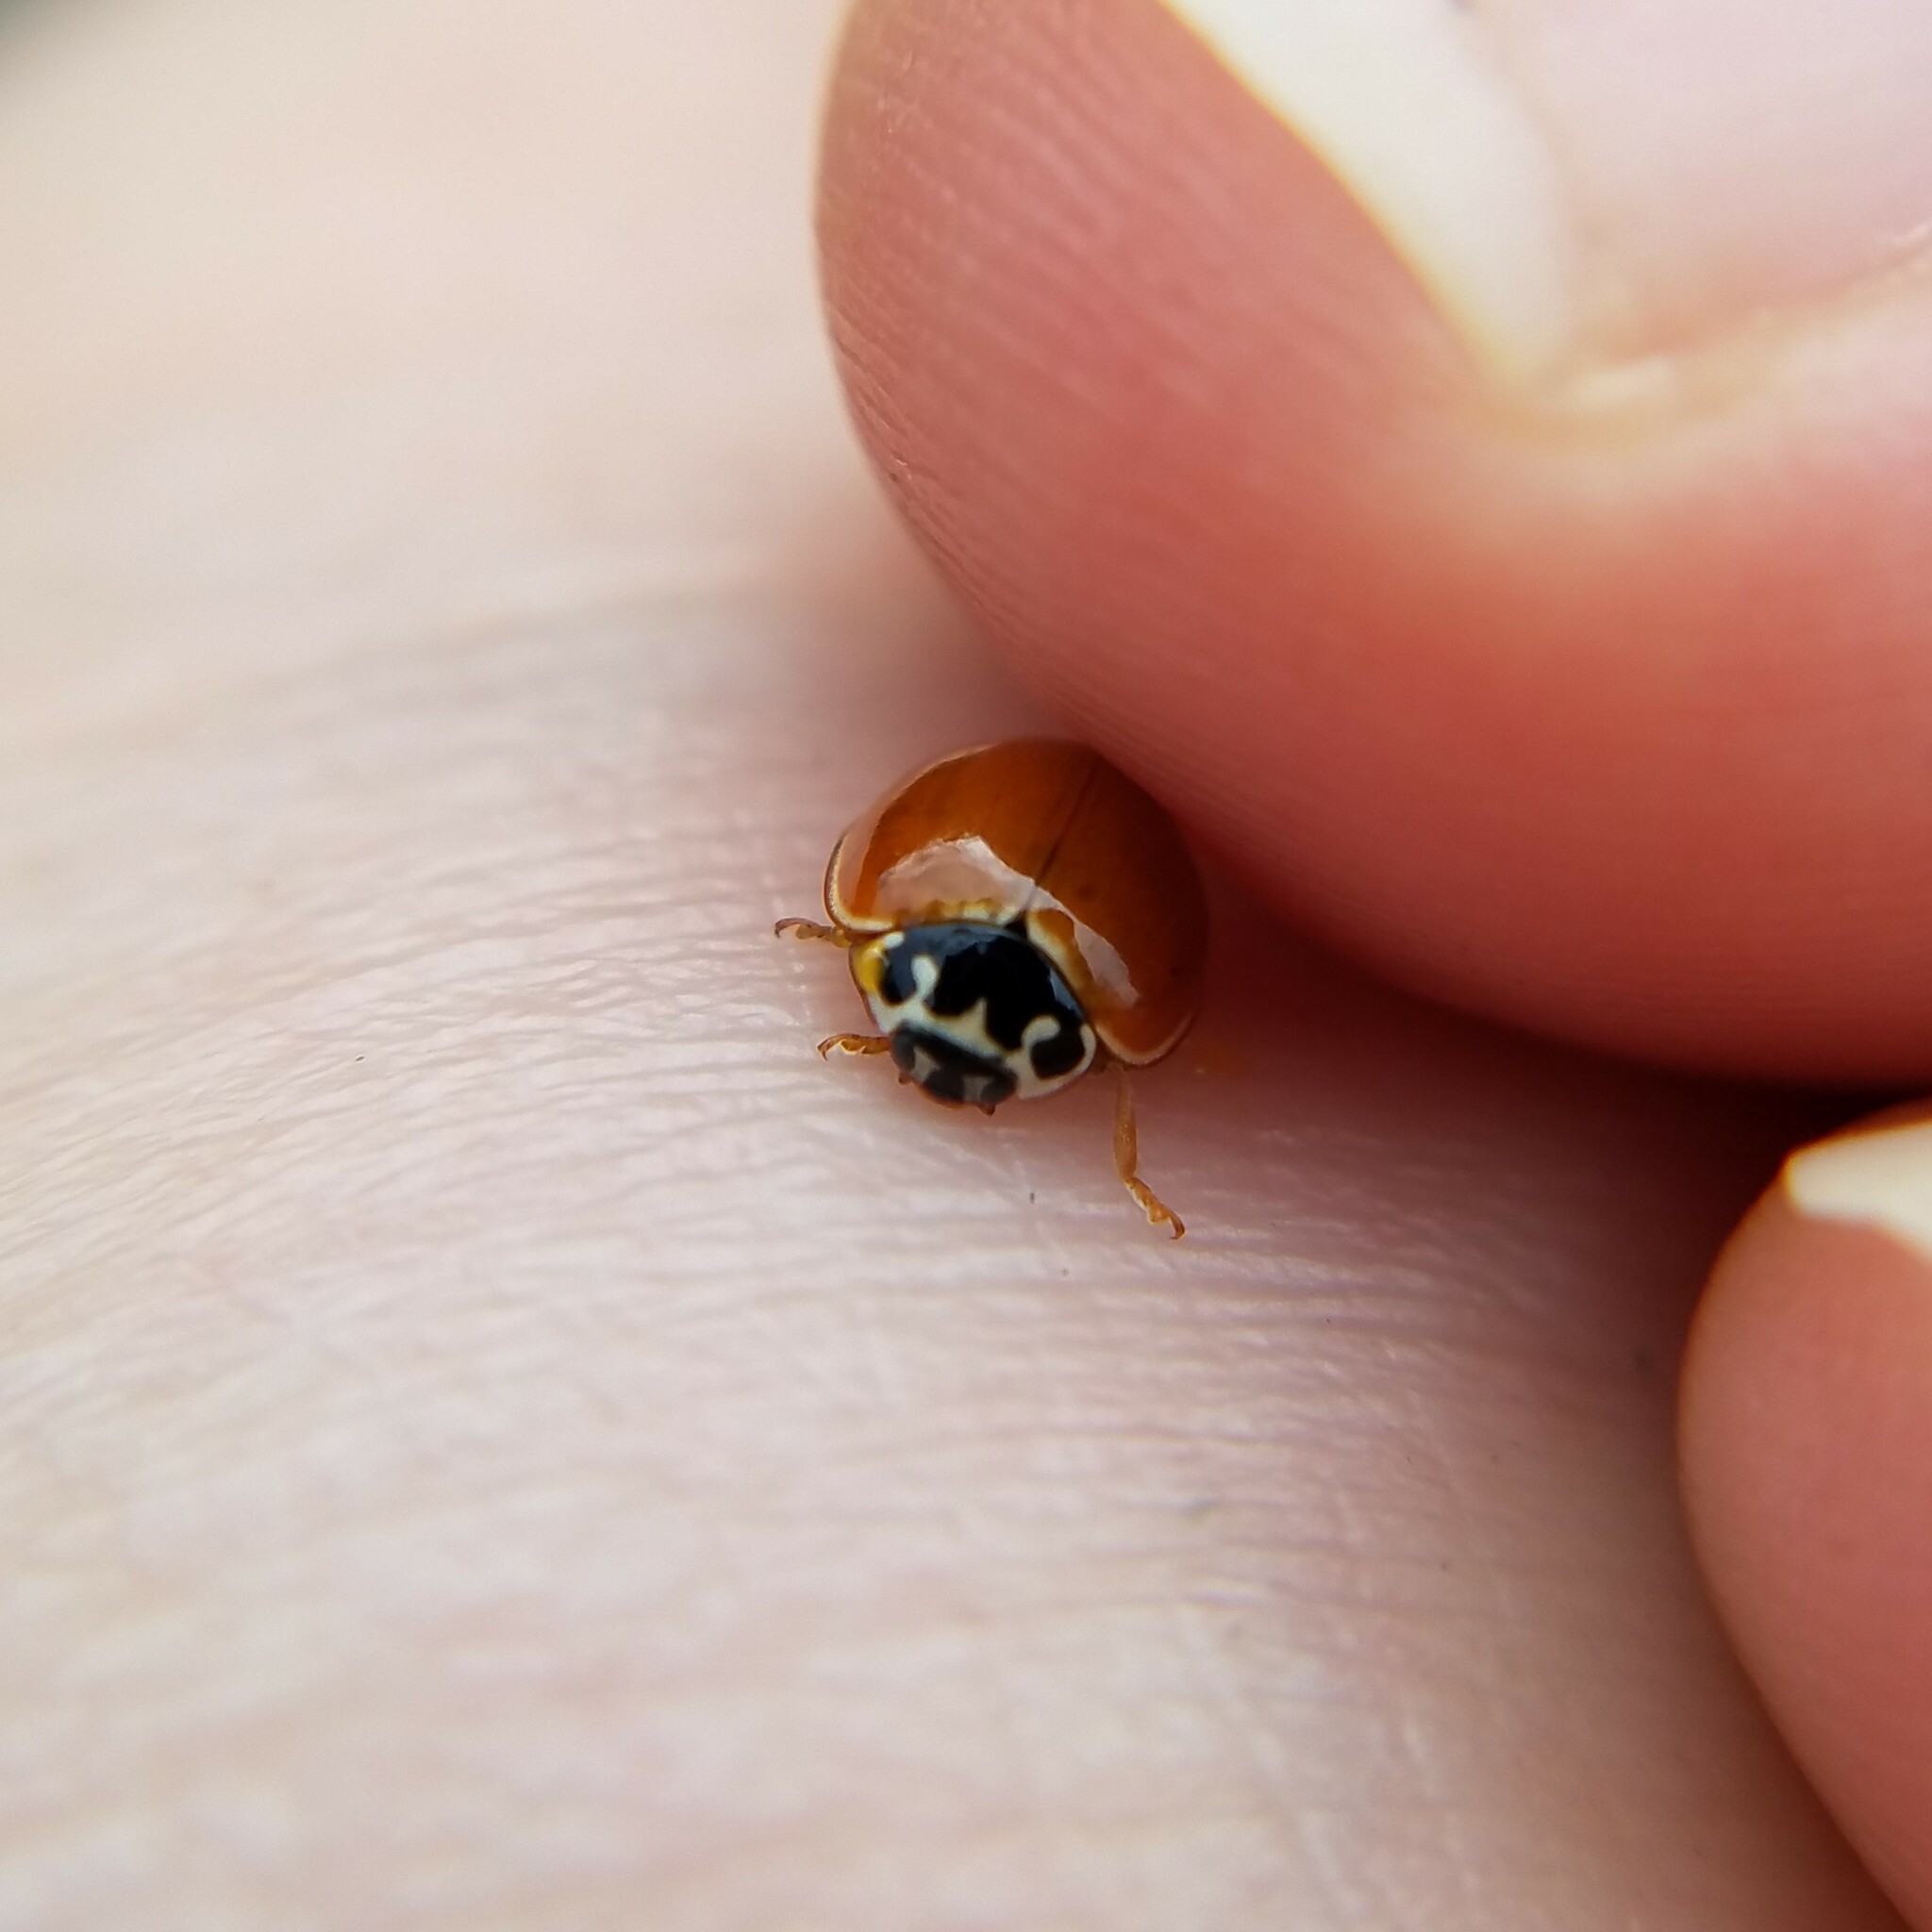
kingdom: Animalia
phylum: Arthropoda
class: Insecta
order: Coleoptera
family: Coccinellidae
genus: Cycloneda
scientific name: Cycloneda munda
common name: Polished lady beetle
